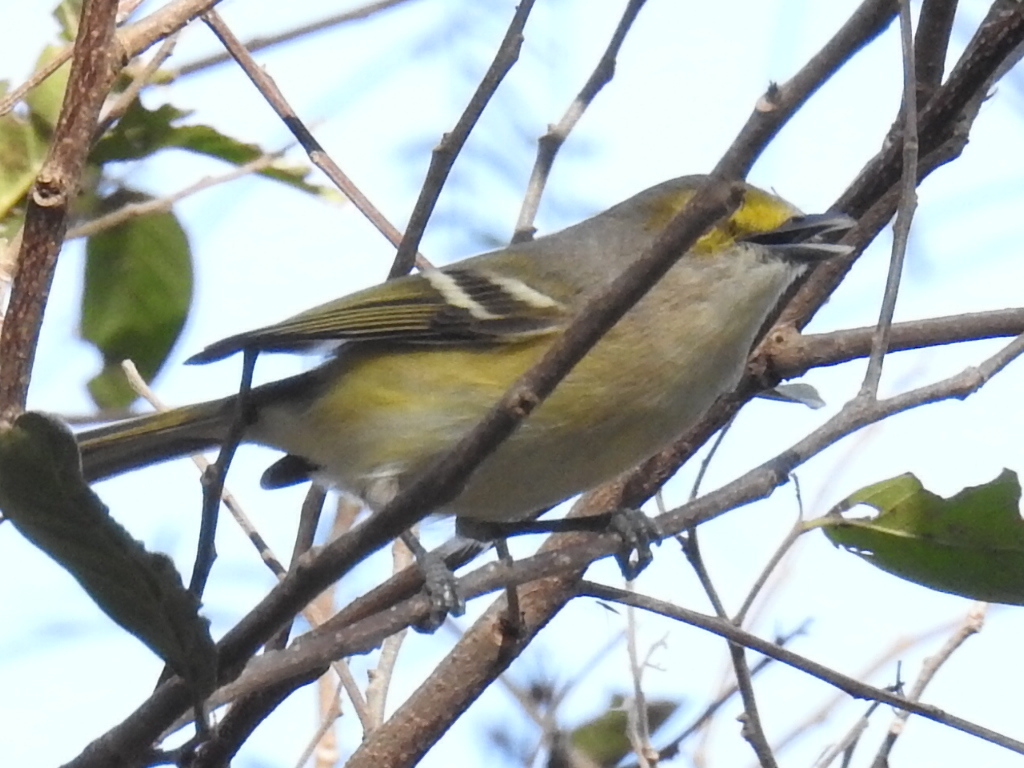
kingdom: Animalia
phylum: Chordata
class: Aves
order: Passeriformes
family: Vireonidae
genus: Vireo
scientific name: Vireo griseus
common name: White-eyed vireo
